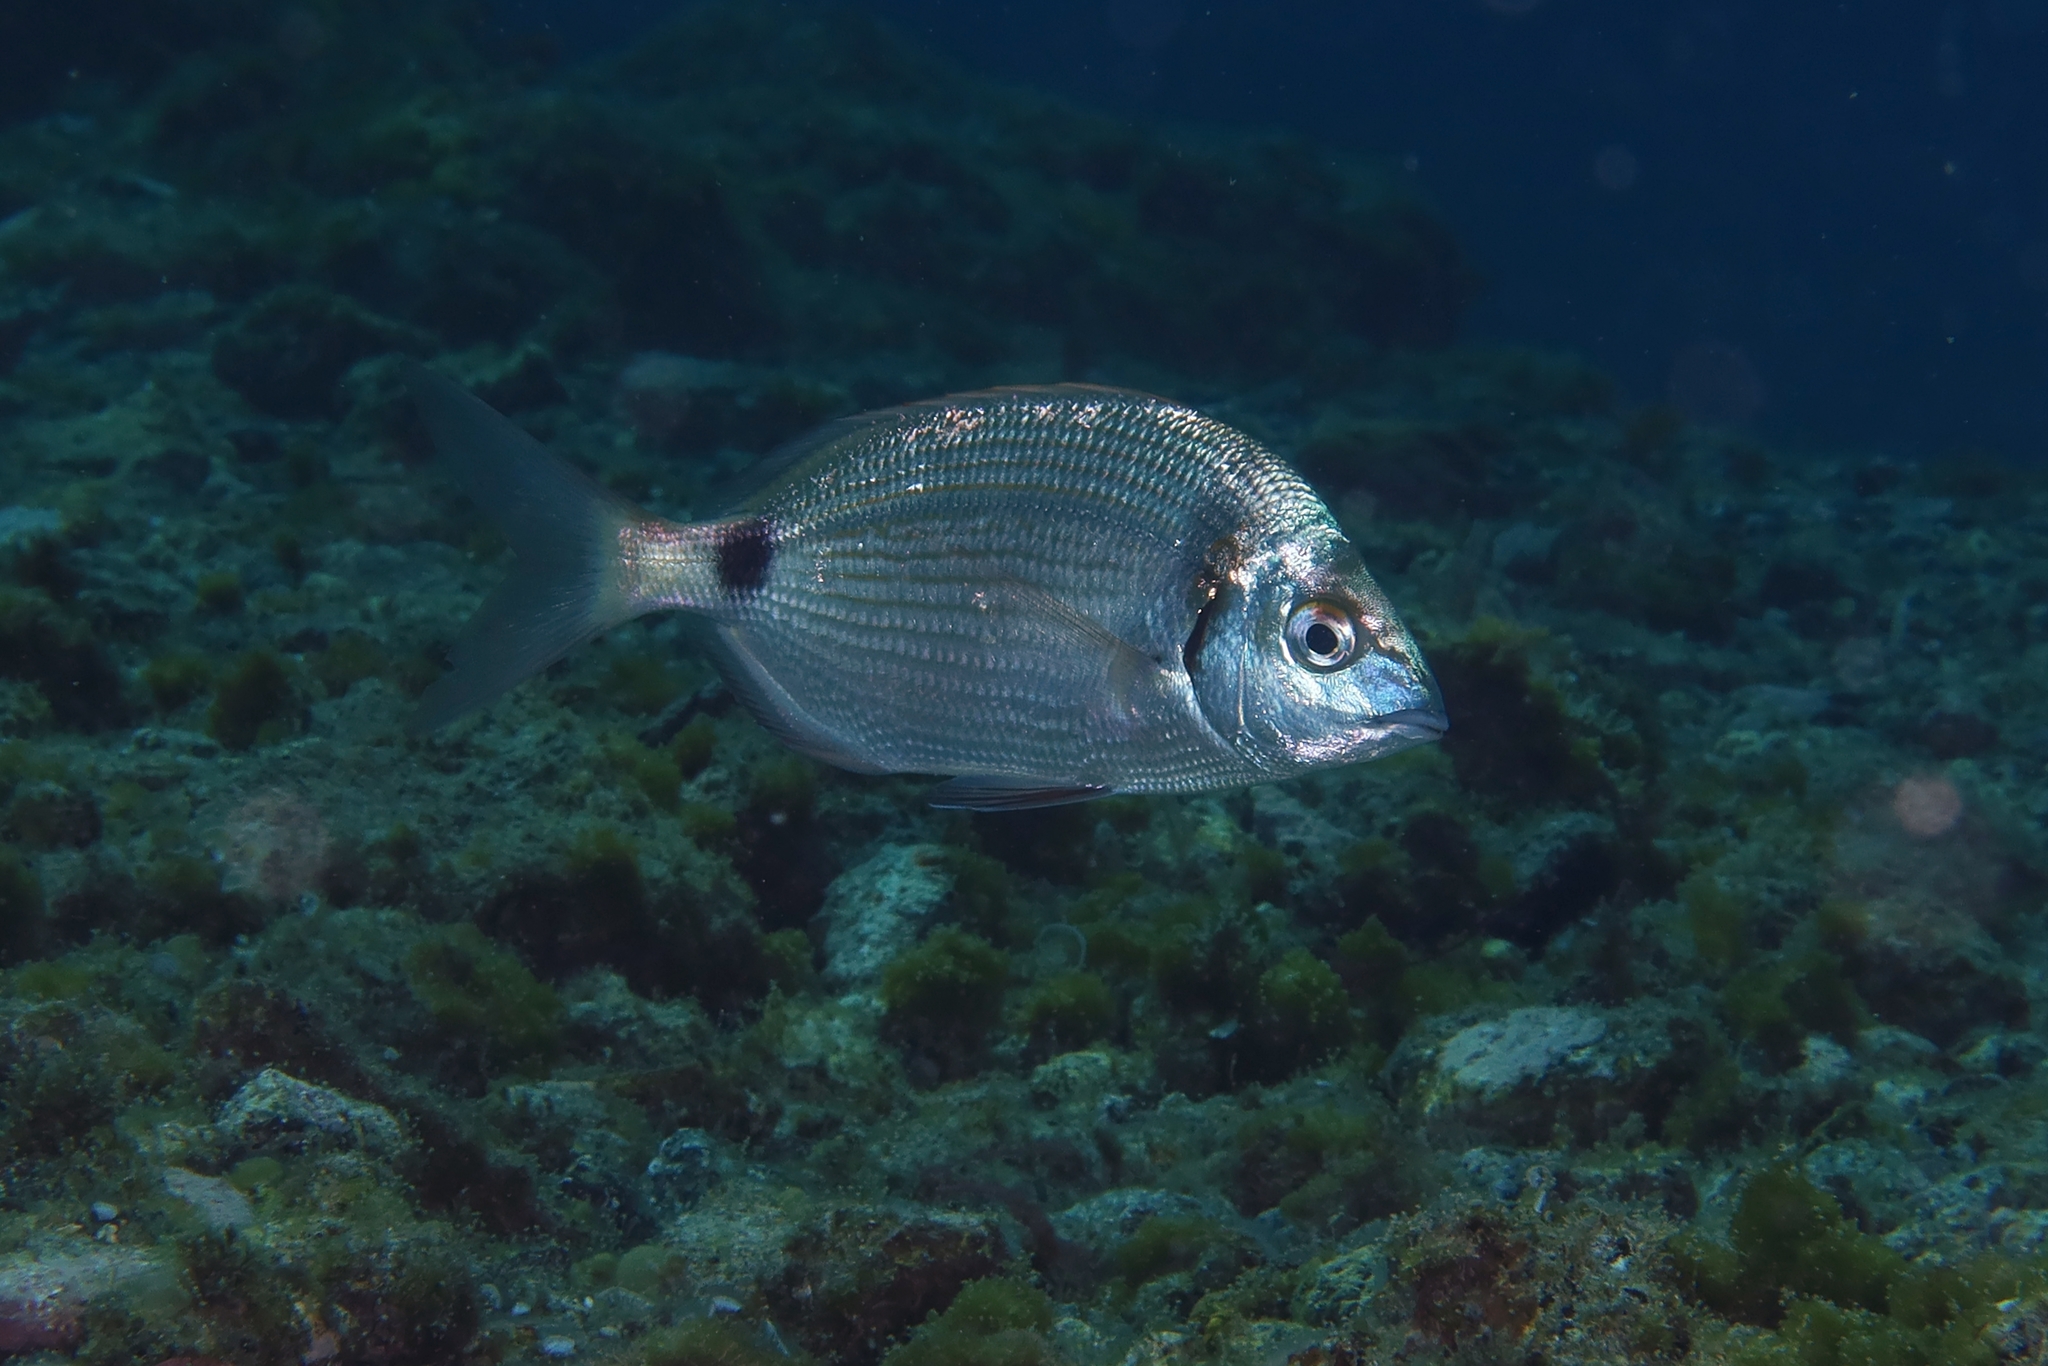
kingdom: Animalia
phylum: Chordata
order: Perciformes
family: Sparidae
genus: Diplodus
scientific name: Diplodus vulgaris
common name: Common two-banded seabream
